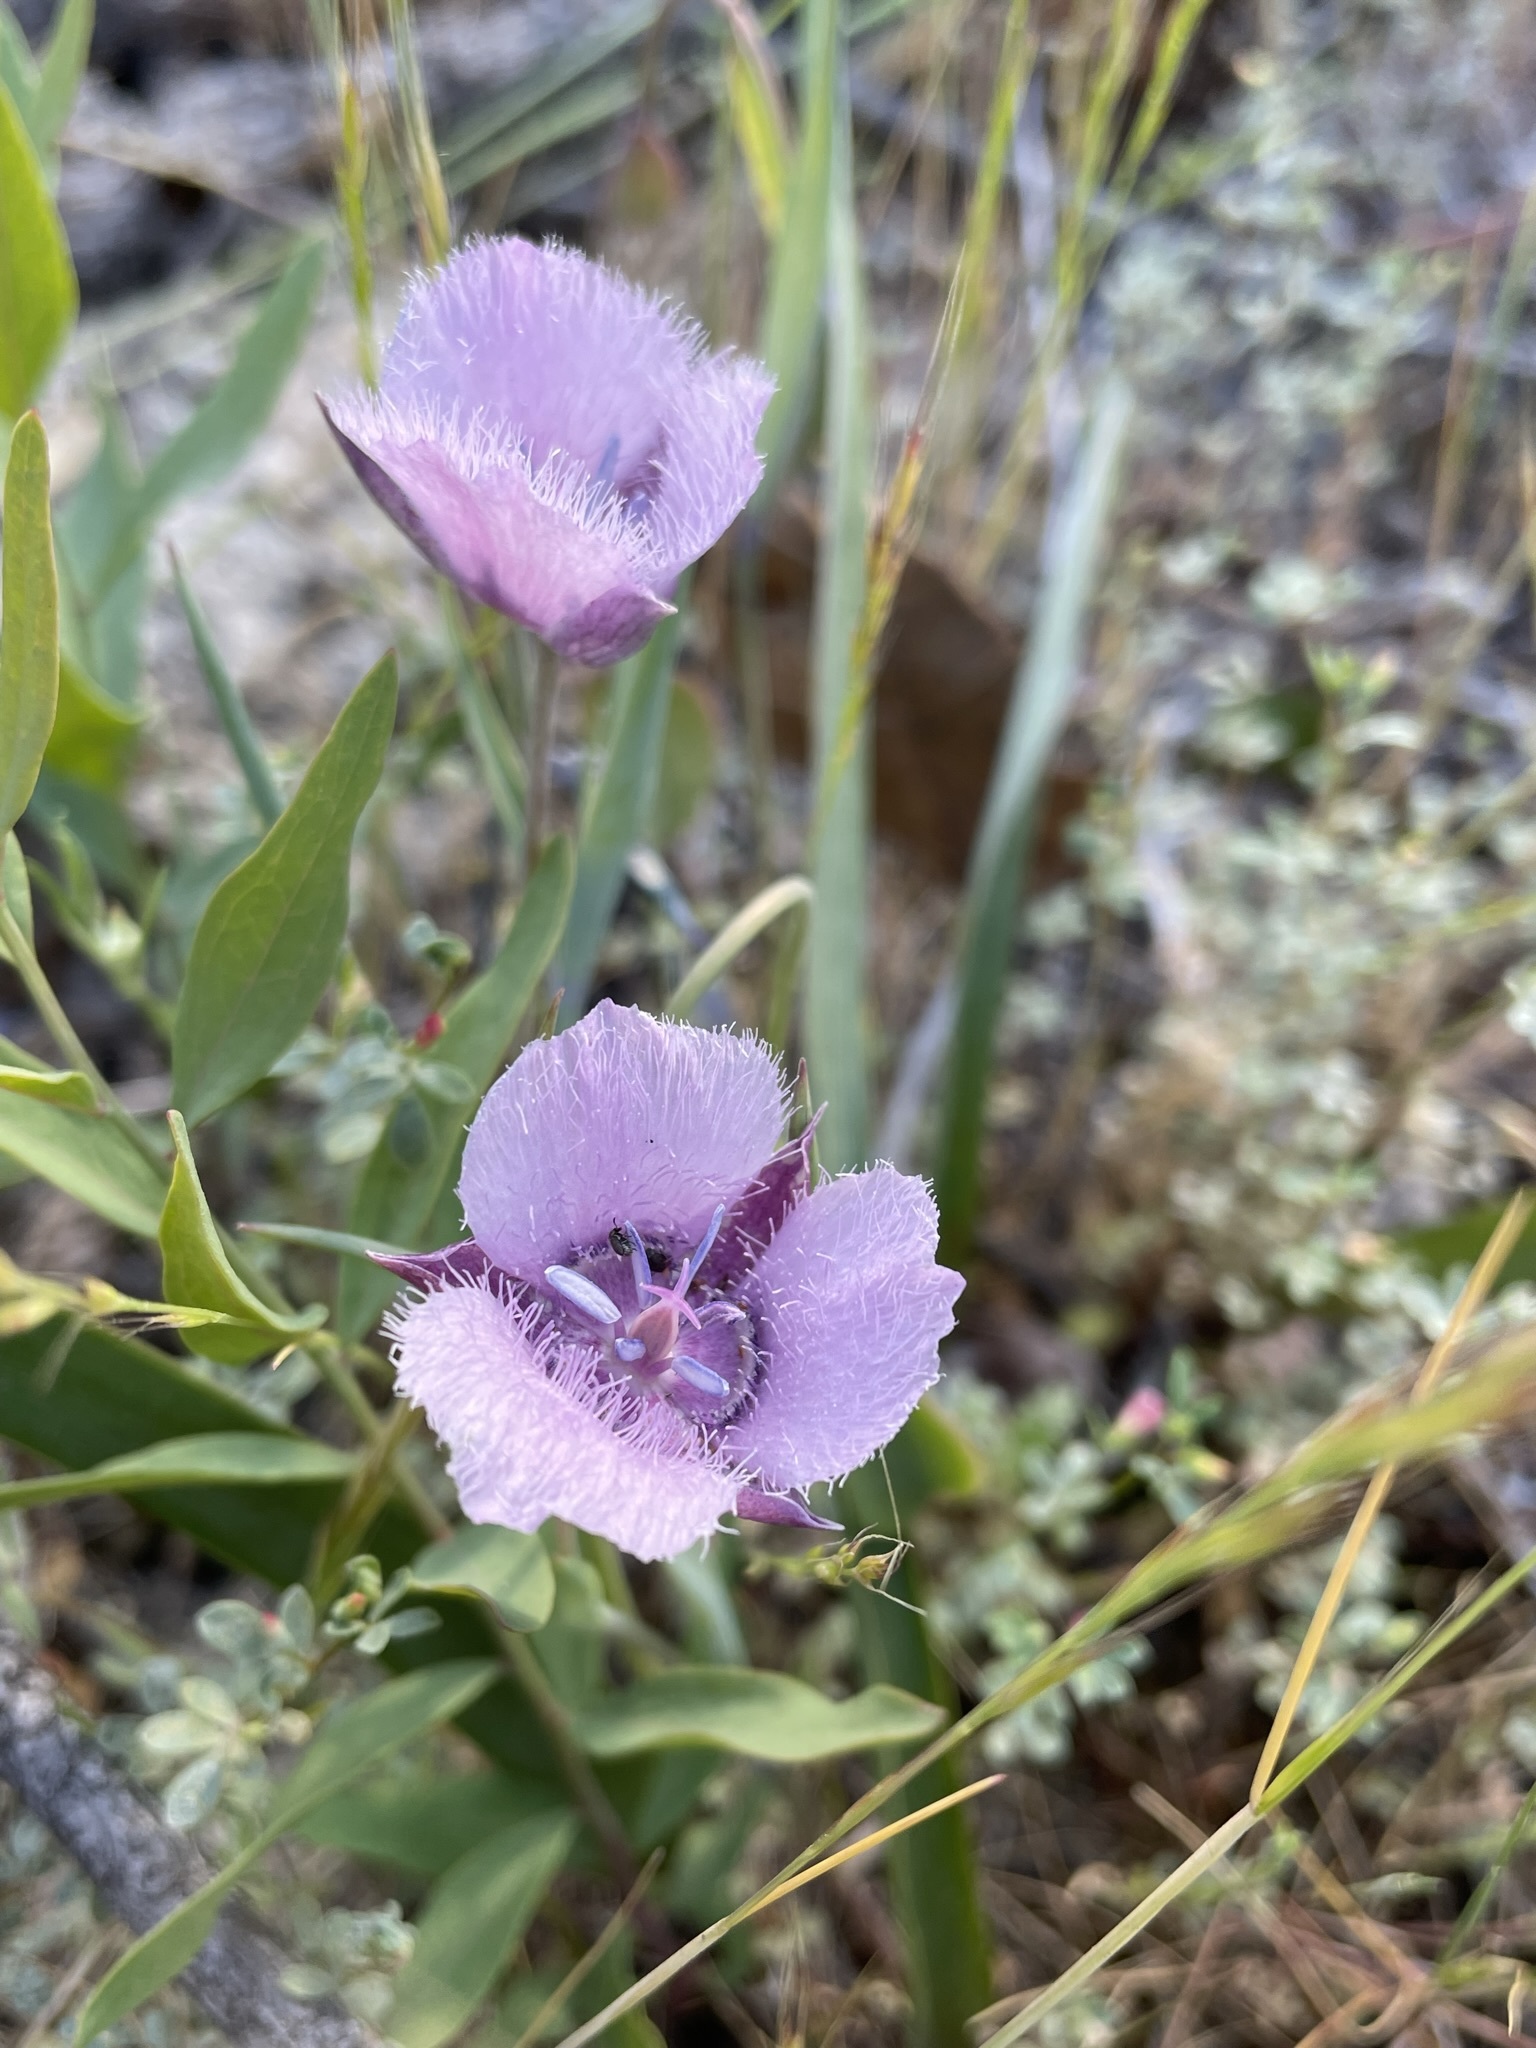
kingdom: Plantae
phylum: Tracheophyta
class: Liliopsida
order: Liliales
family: Liliaceae
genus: Calochortus
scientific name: Calochortus tolmiei
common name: Pussy-ears
